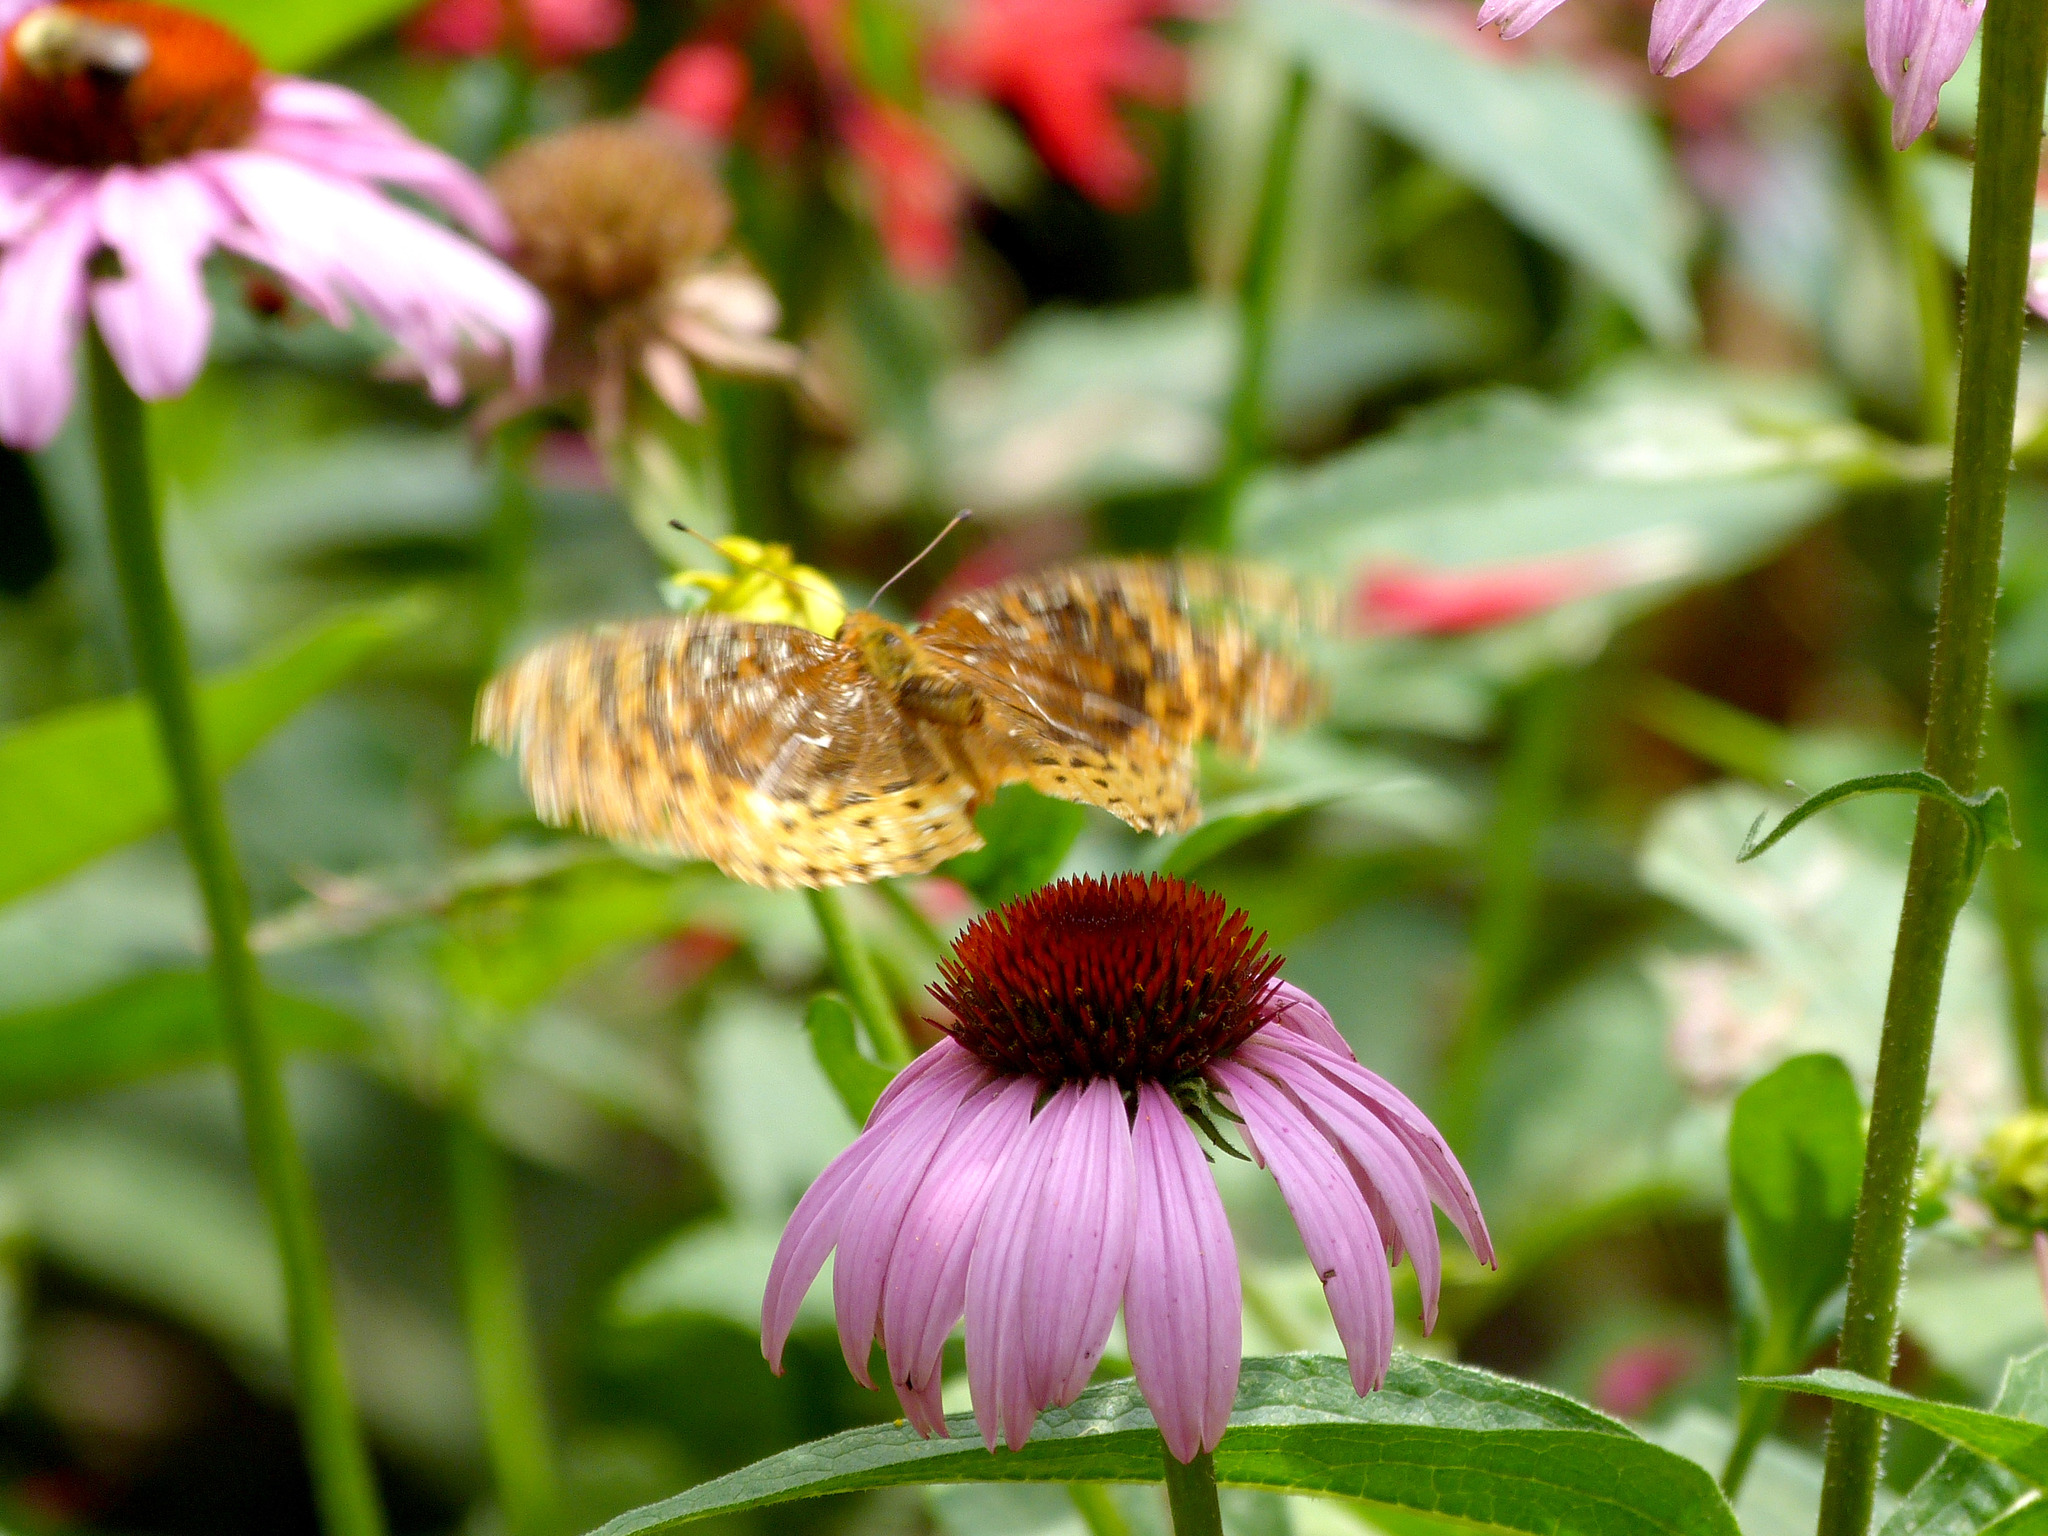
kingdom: Animalia
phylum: Arthropoda
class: Insecta
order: Lepidoptera
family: Nymphalidae
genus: Speyeria
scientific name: Speyeria cybele
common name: Great spangled fritillary
